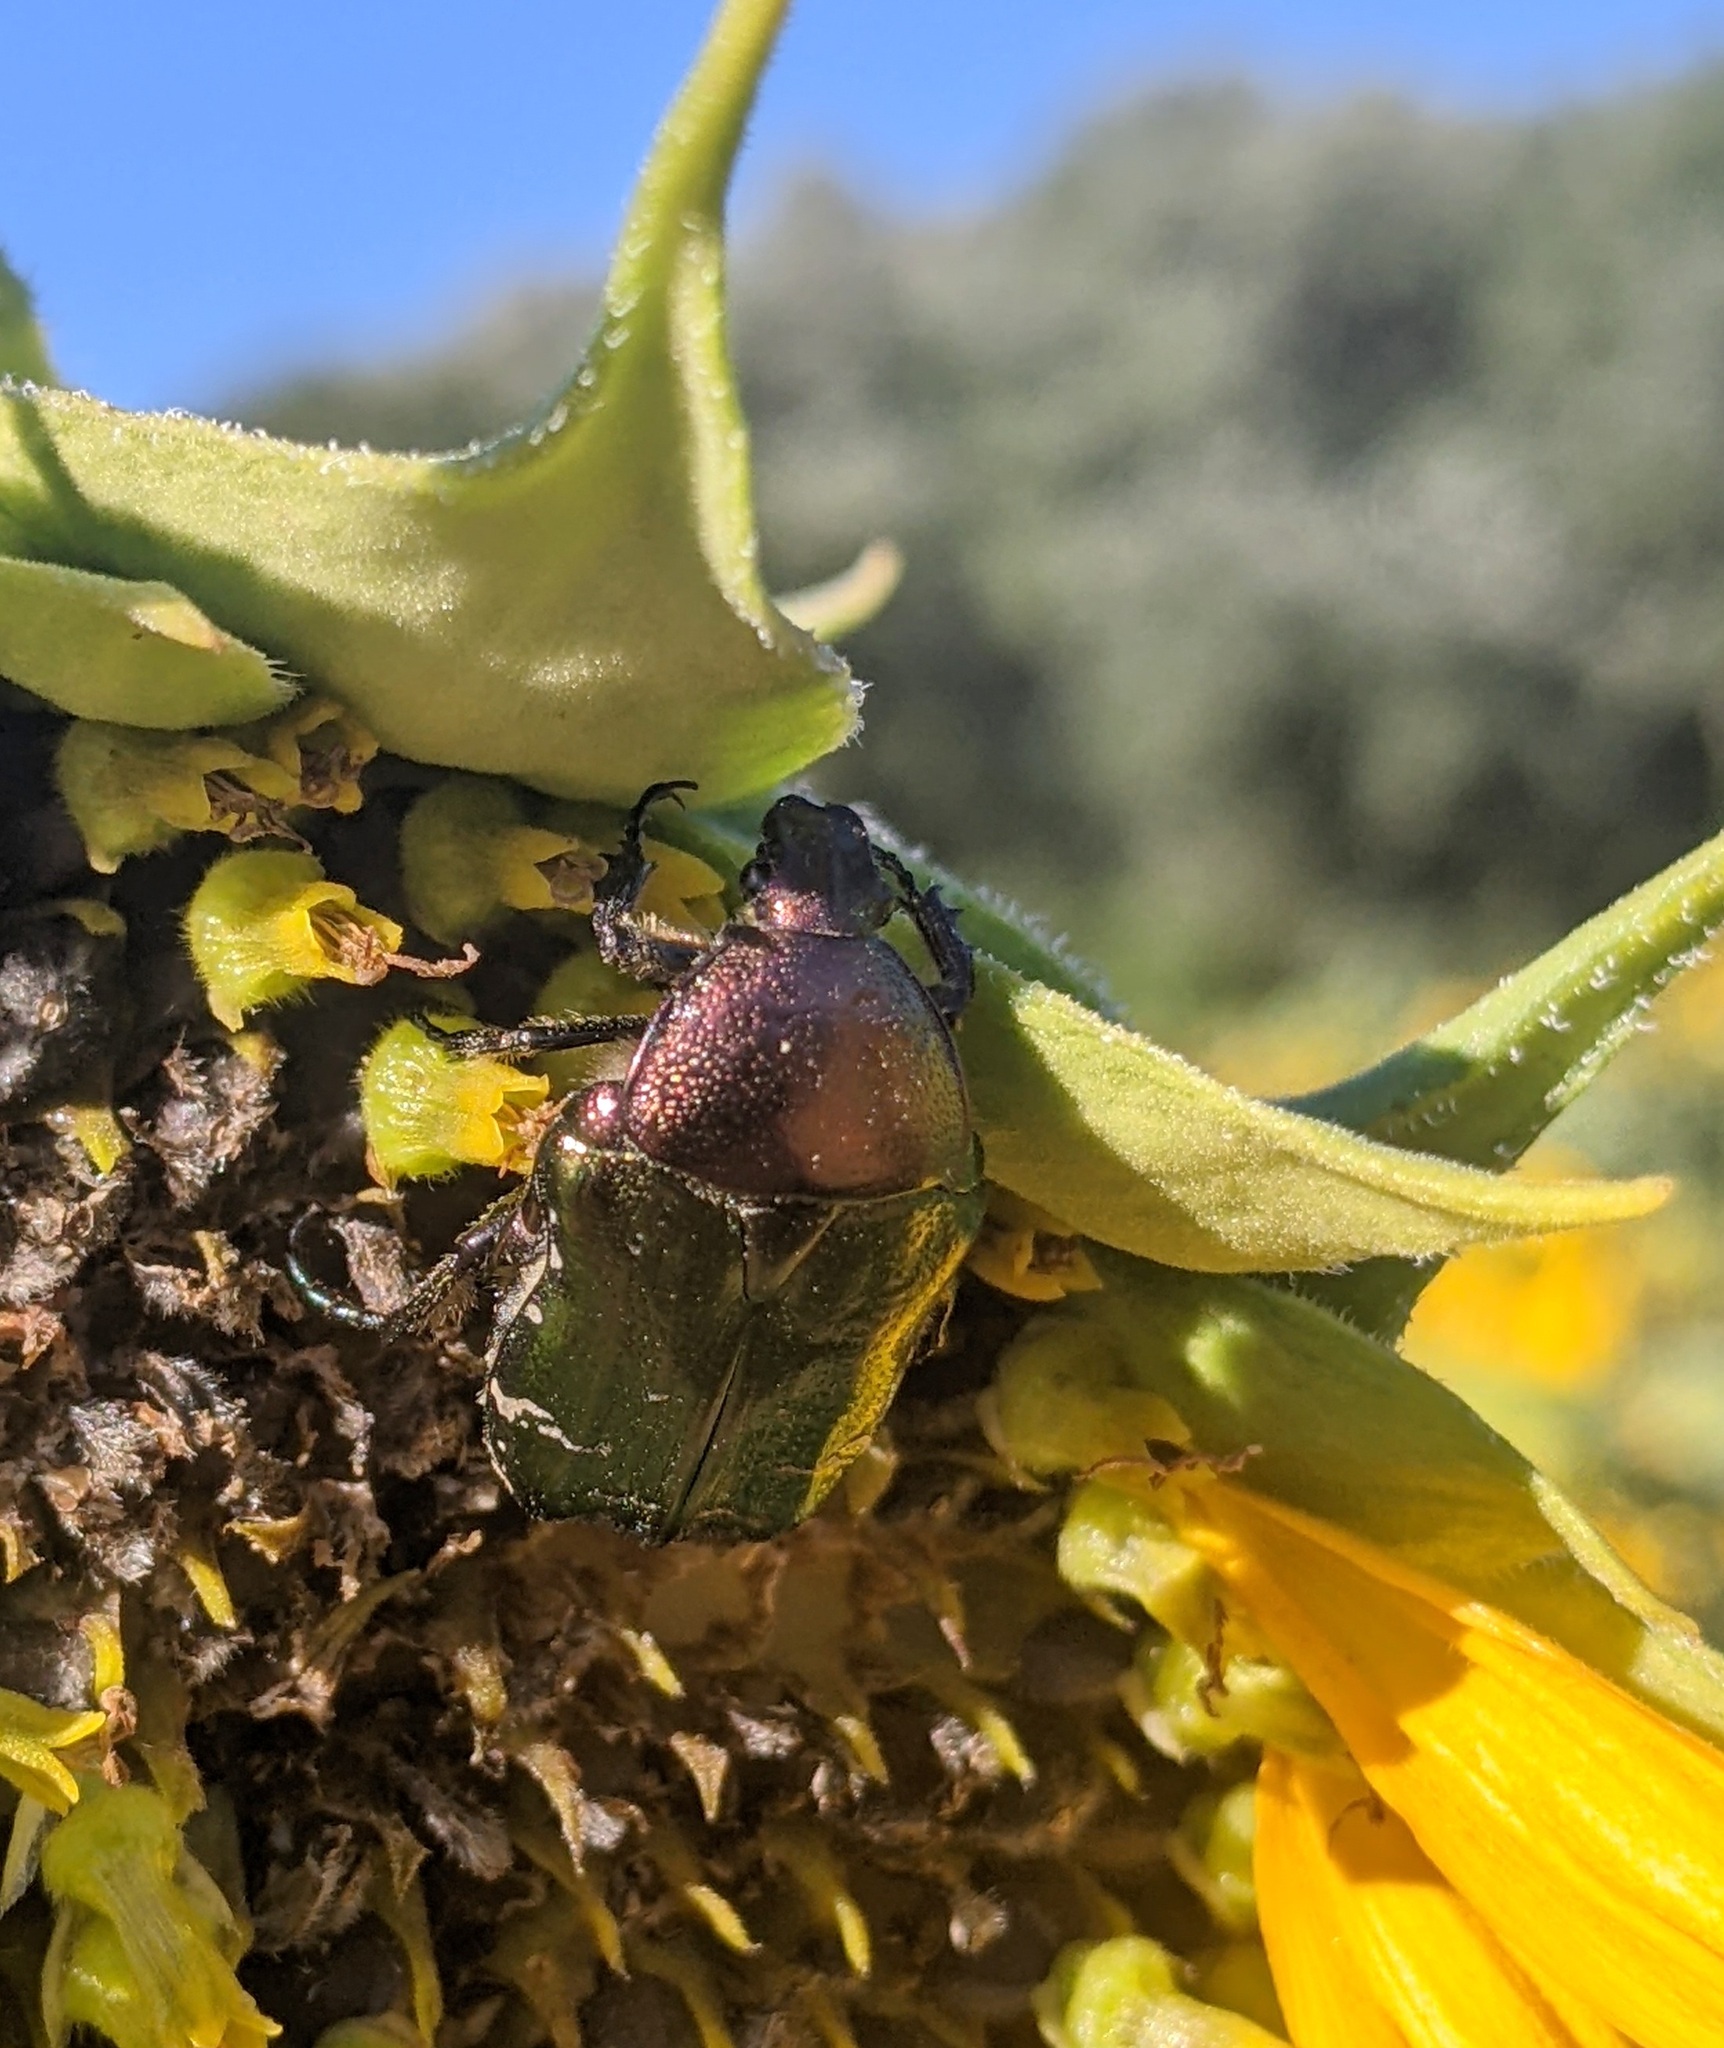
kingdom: Animalia
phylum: Arthropoda
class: Insecta
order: Coleoptera
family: Scarabaeidae
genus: Cetonia
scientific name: Cetonia aurata
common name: Rose chafer
